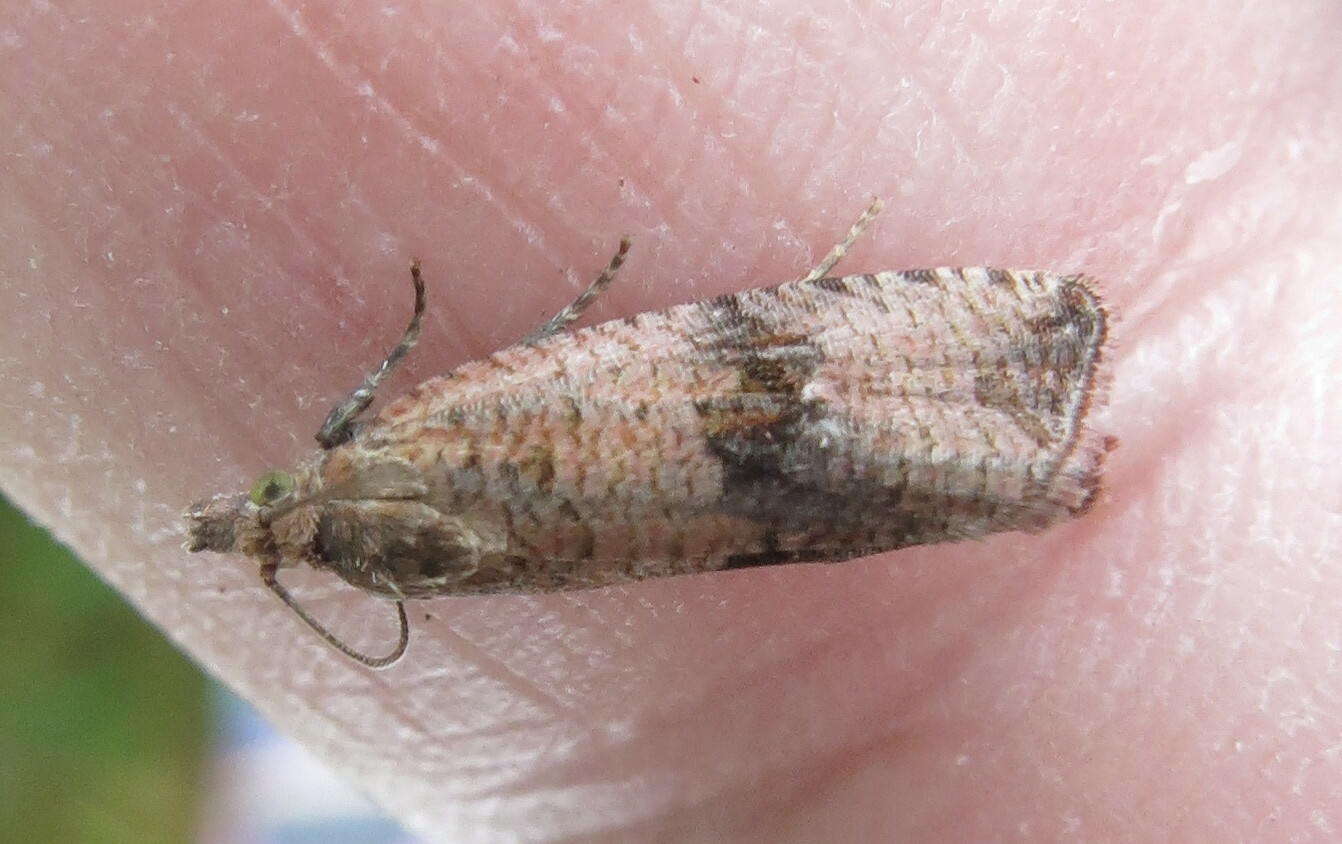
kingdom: Animalia
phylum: Arthropoda
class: Insecta
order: Lepidoptera
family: Tortricidae
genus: Celypha
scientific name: Celypha striana
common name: Barred marble
